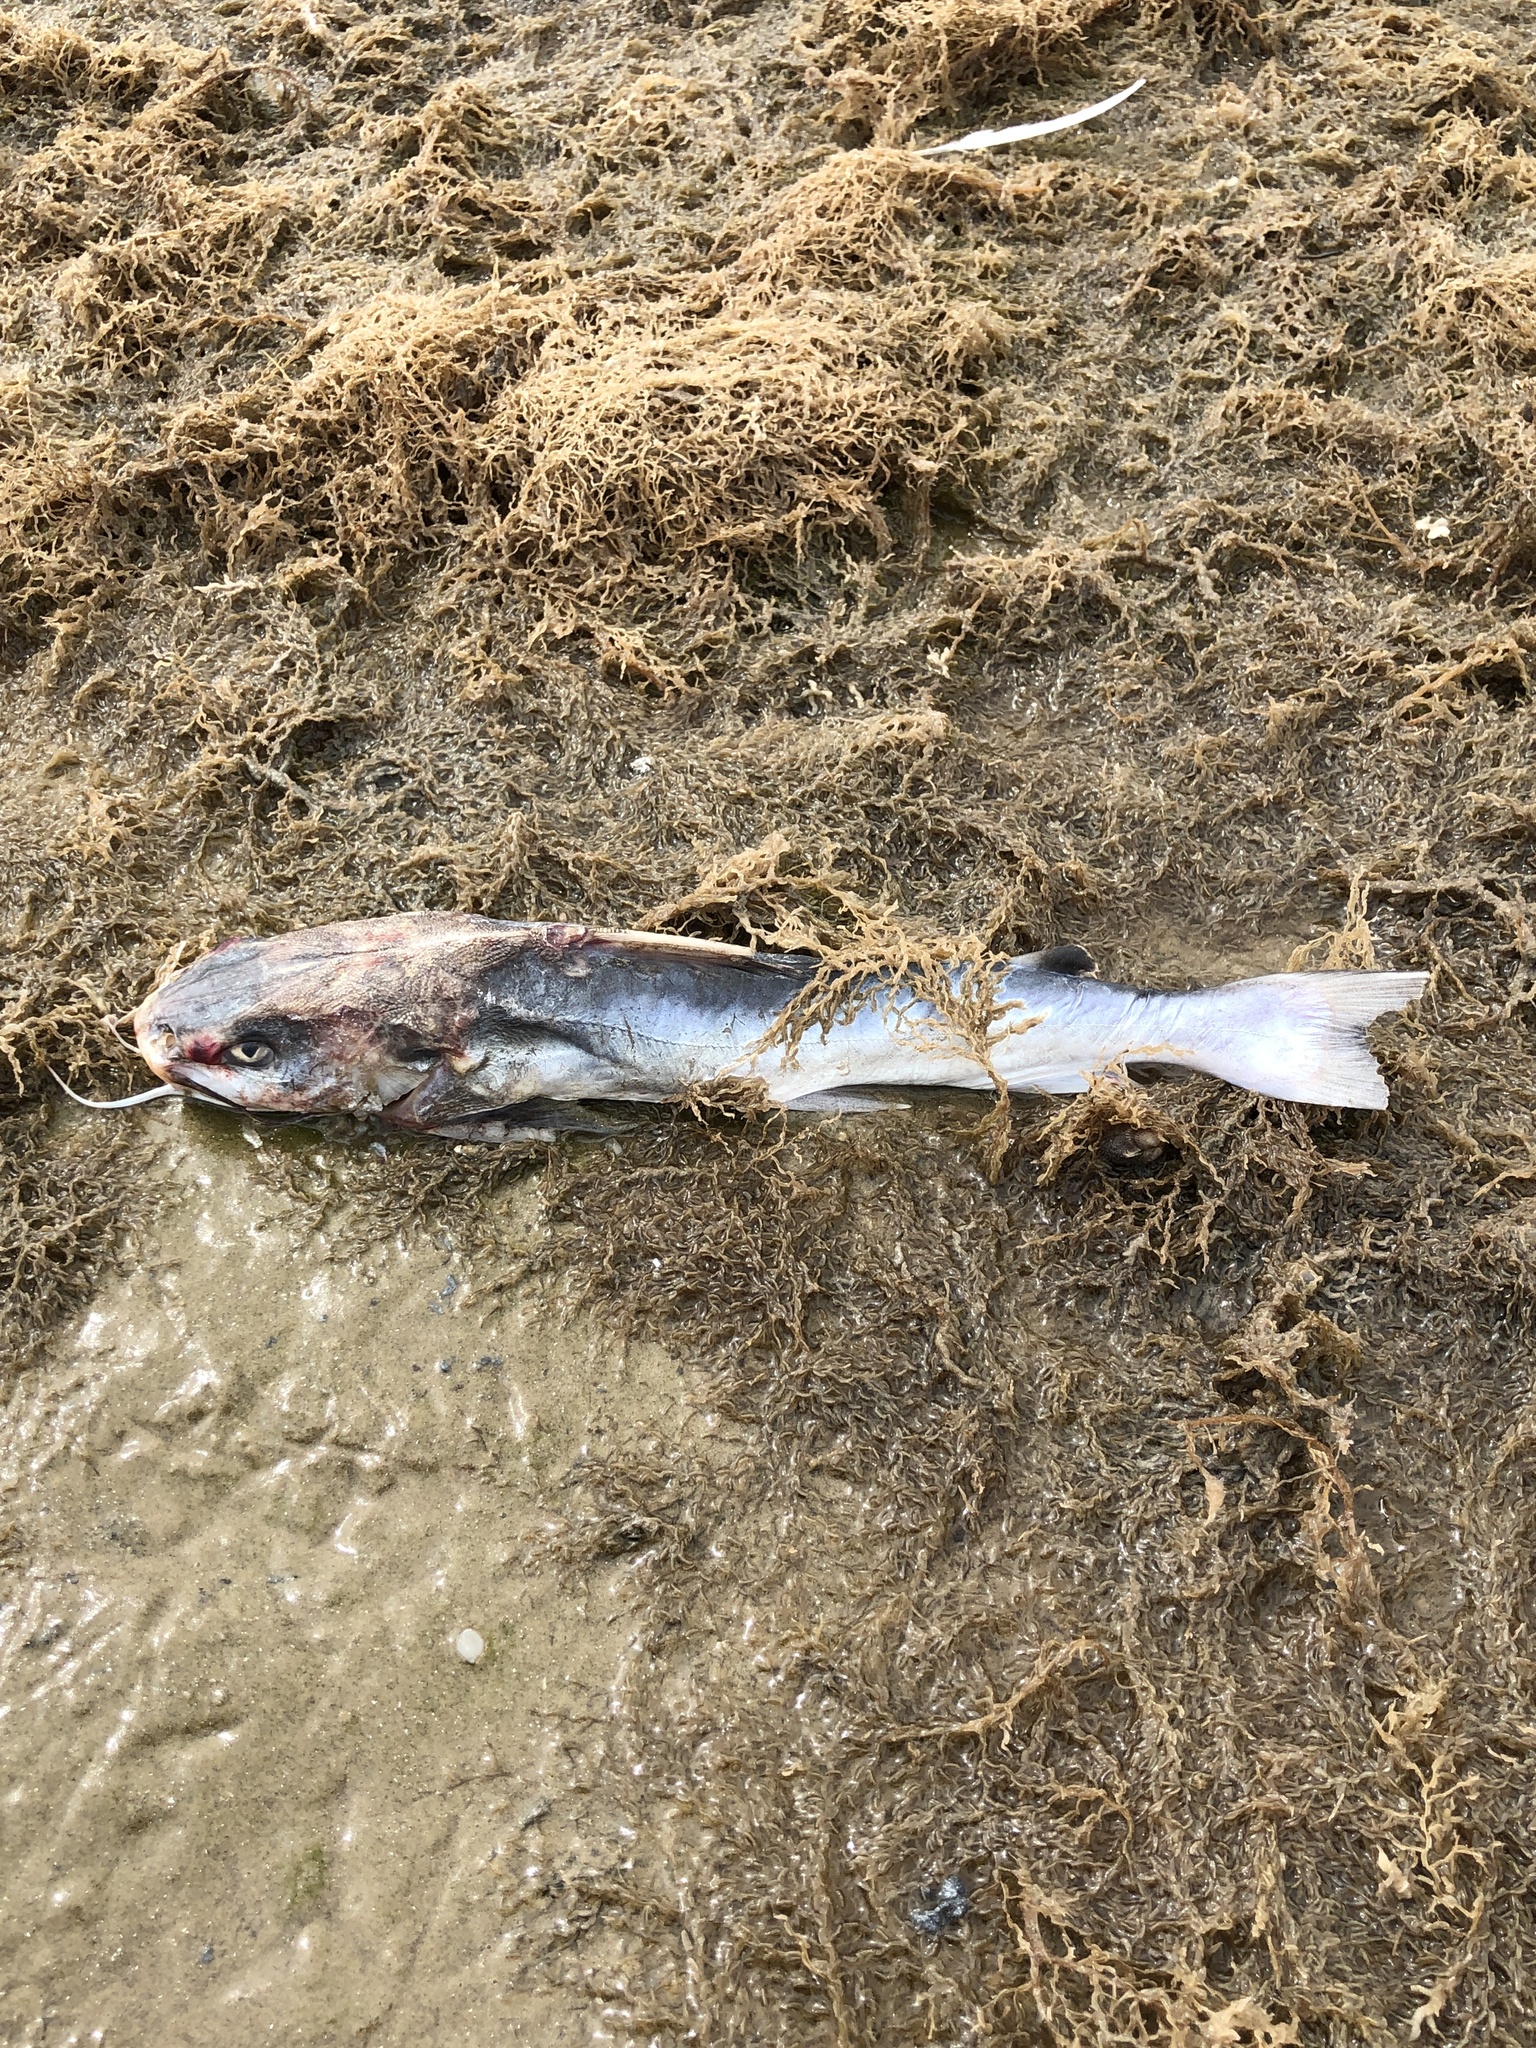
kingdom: Animalia
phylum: Chordata
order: Siluriformes
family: Ariidae
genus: Ariopsis
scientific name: Ariopsis felis
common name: Hardhead catfish
